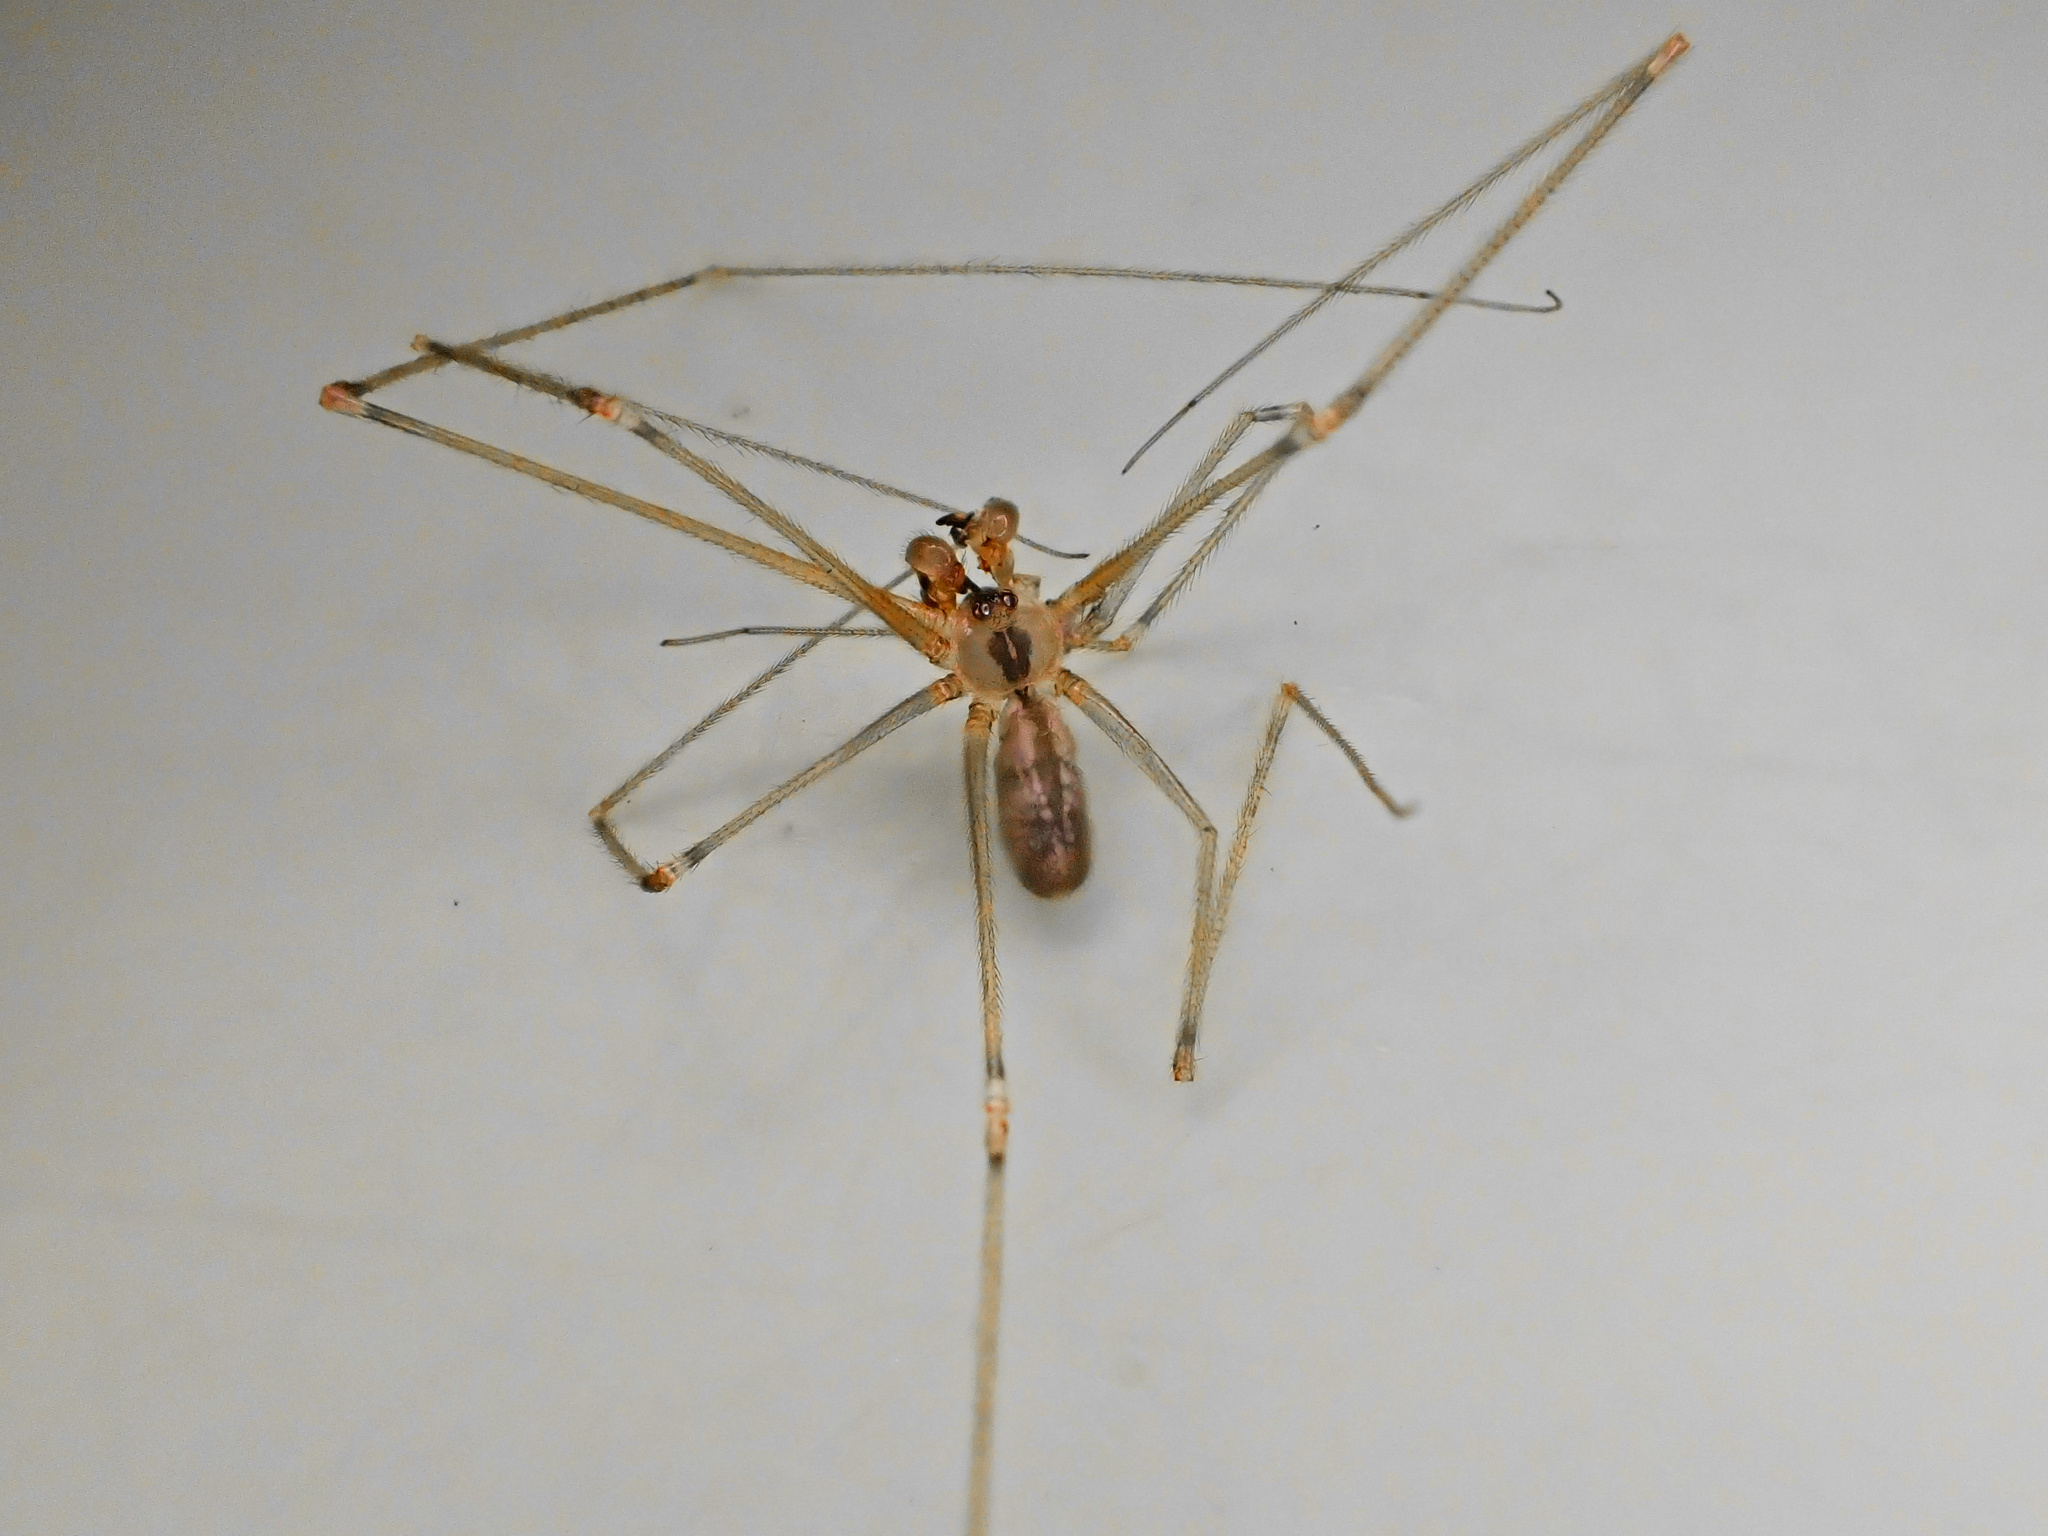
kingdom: Animalia
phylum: Arthropoda
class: Arachnida
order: Araneae
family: Pholcidae
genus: Pholcus
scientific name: Pholcus manueli
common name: Cellar spider
